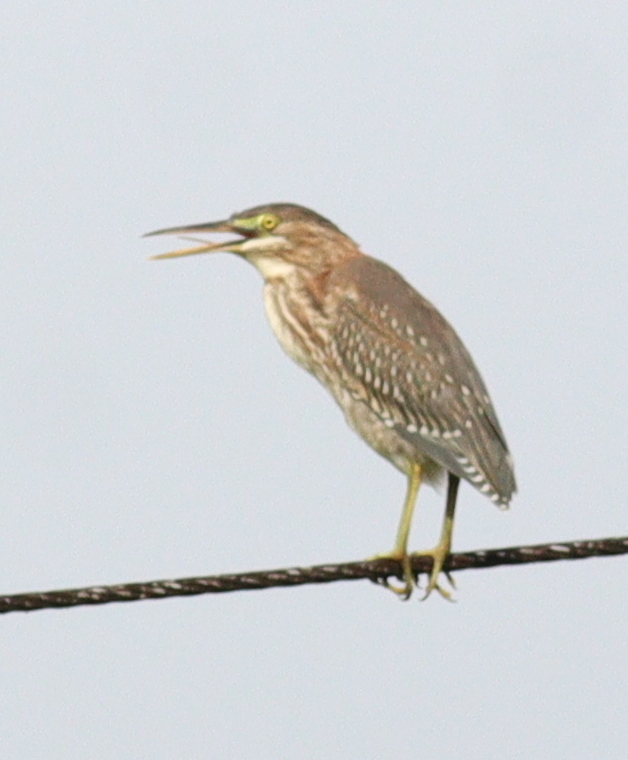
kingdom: Animalia
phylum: Chordata
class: Aves
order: Pelecaniformes
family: Ardeidae
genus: Butorides
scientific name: Butorides virescens
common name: Green heron
